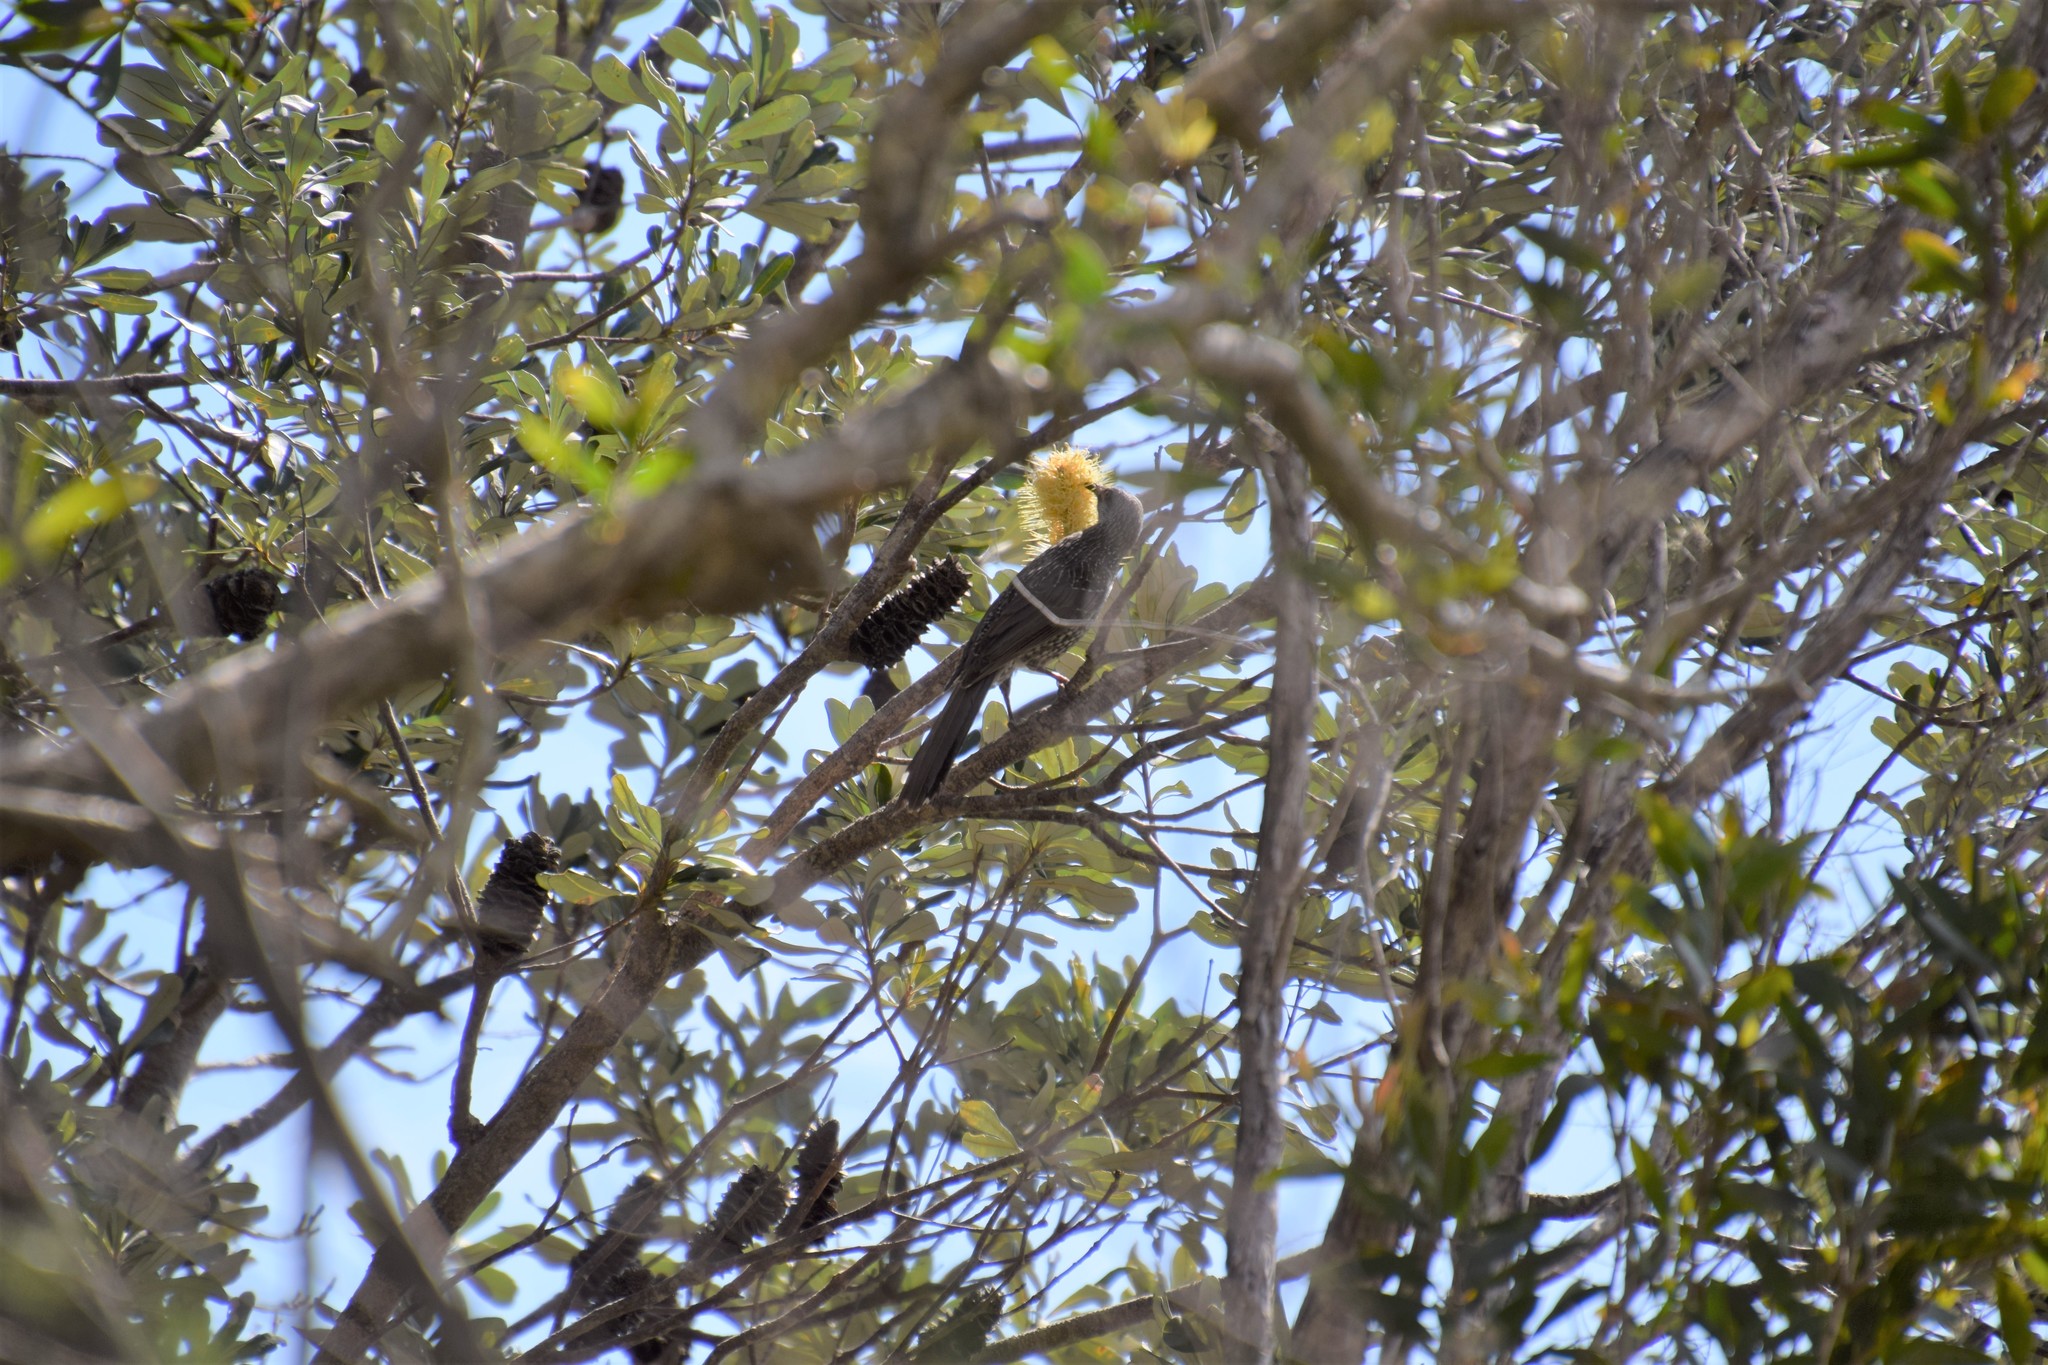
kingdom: Animalia
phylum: Chordata
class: Aves
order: Passeriformes
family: Meliphagidae
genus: Anthochaera
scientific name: Anthochaera chrysoptera
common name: Little wattlebird
